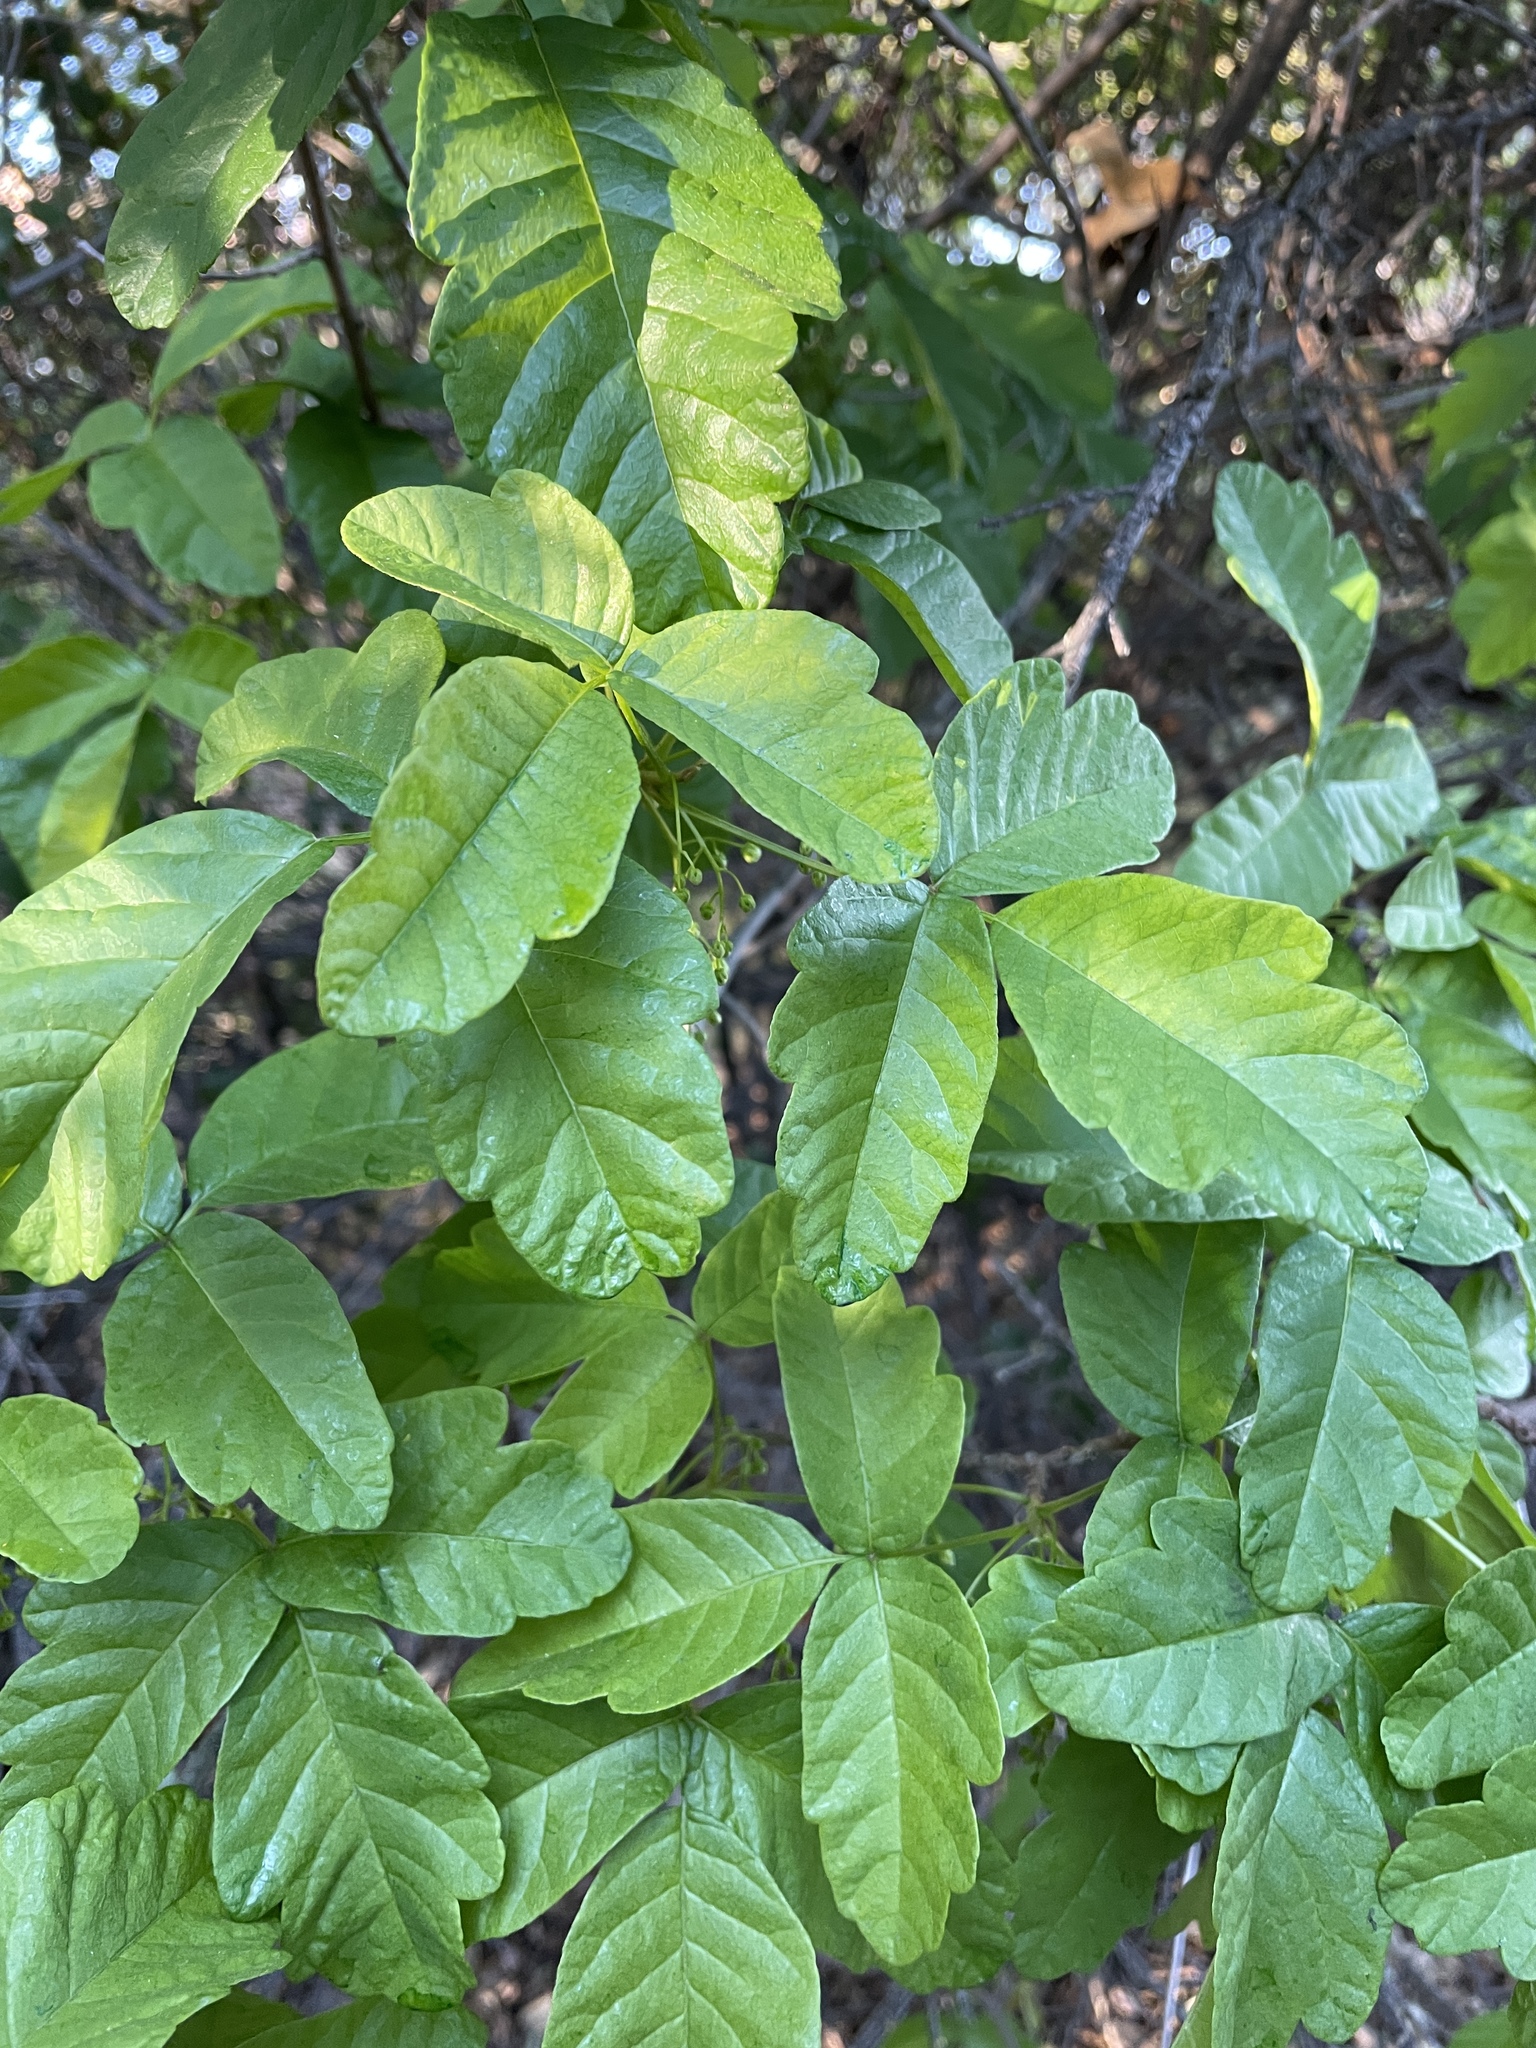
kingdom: Plantae
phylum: Tracheophyta
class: Magnoliopsida
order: Sapindales
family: Anacardiaceae
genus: Toxicodendron
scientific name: Toxicodendron diversilobum
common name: Pacific poison-oak
